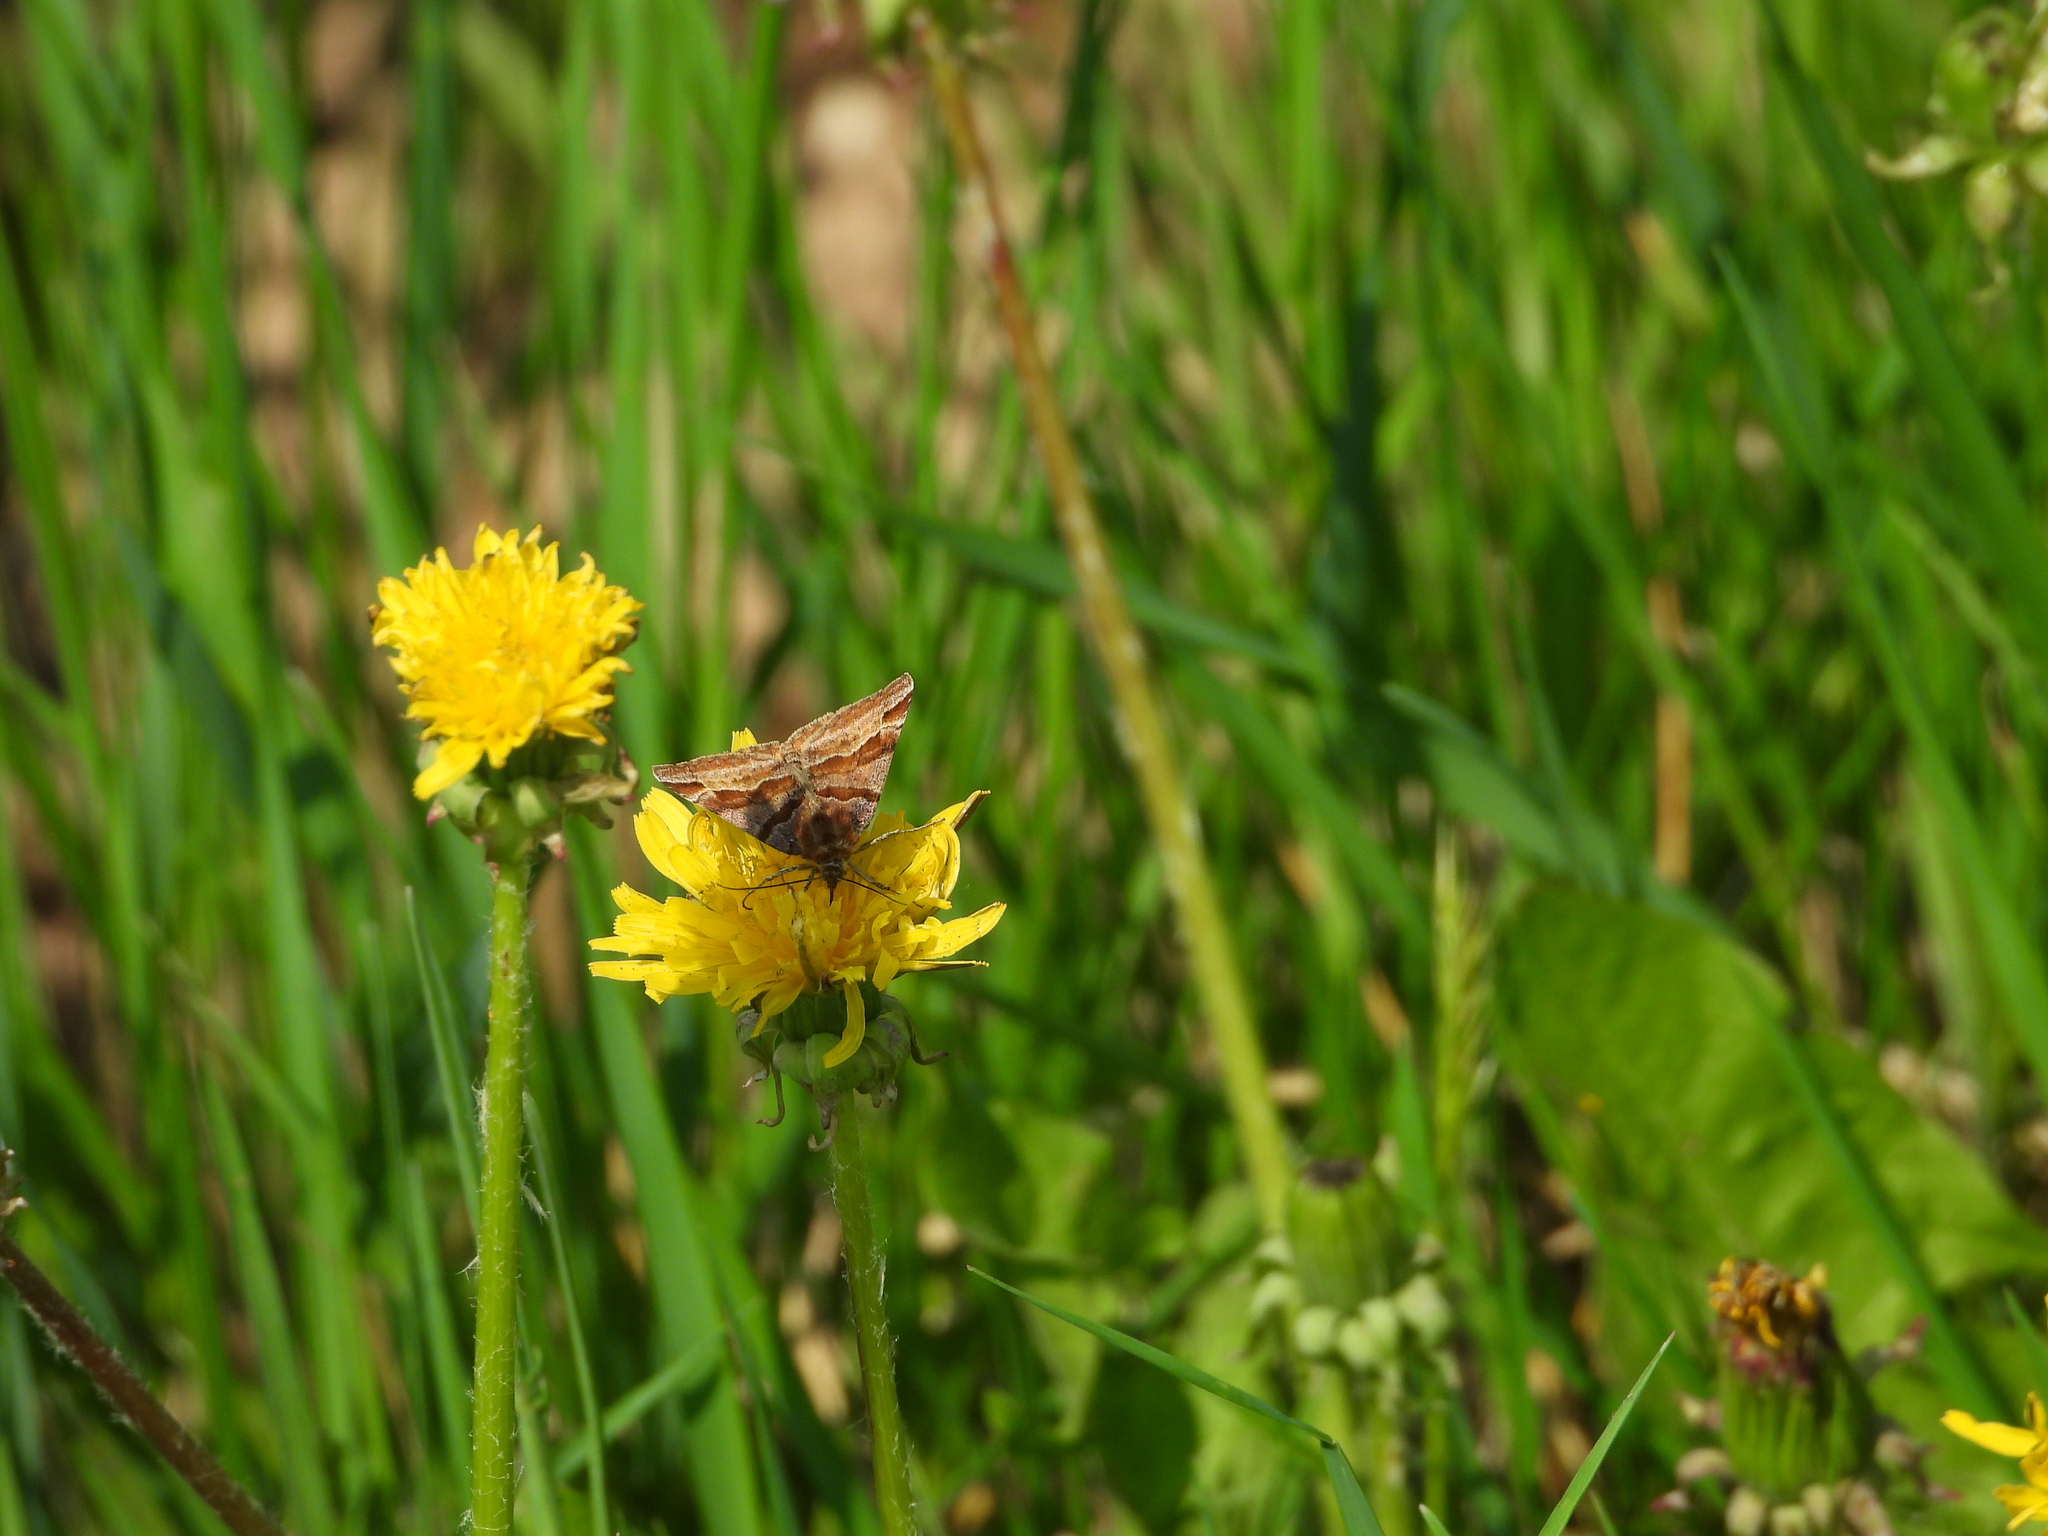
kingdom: Animalia
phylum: Arthropoda
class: Insecta
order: Lepidoptera
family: Erebidae
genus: Euclidia
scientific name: Euclidia glyphica
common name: Burnet companion
